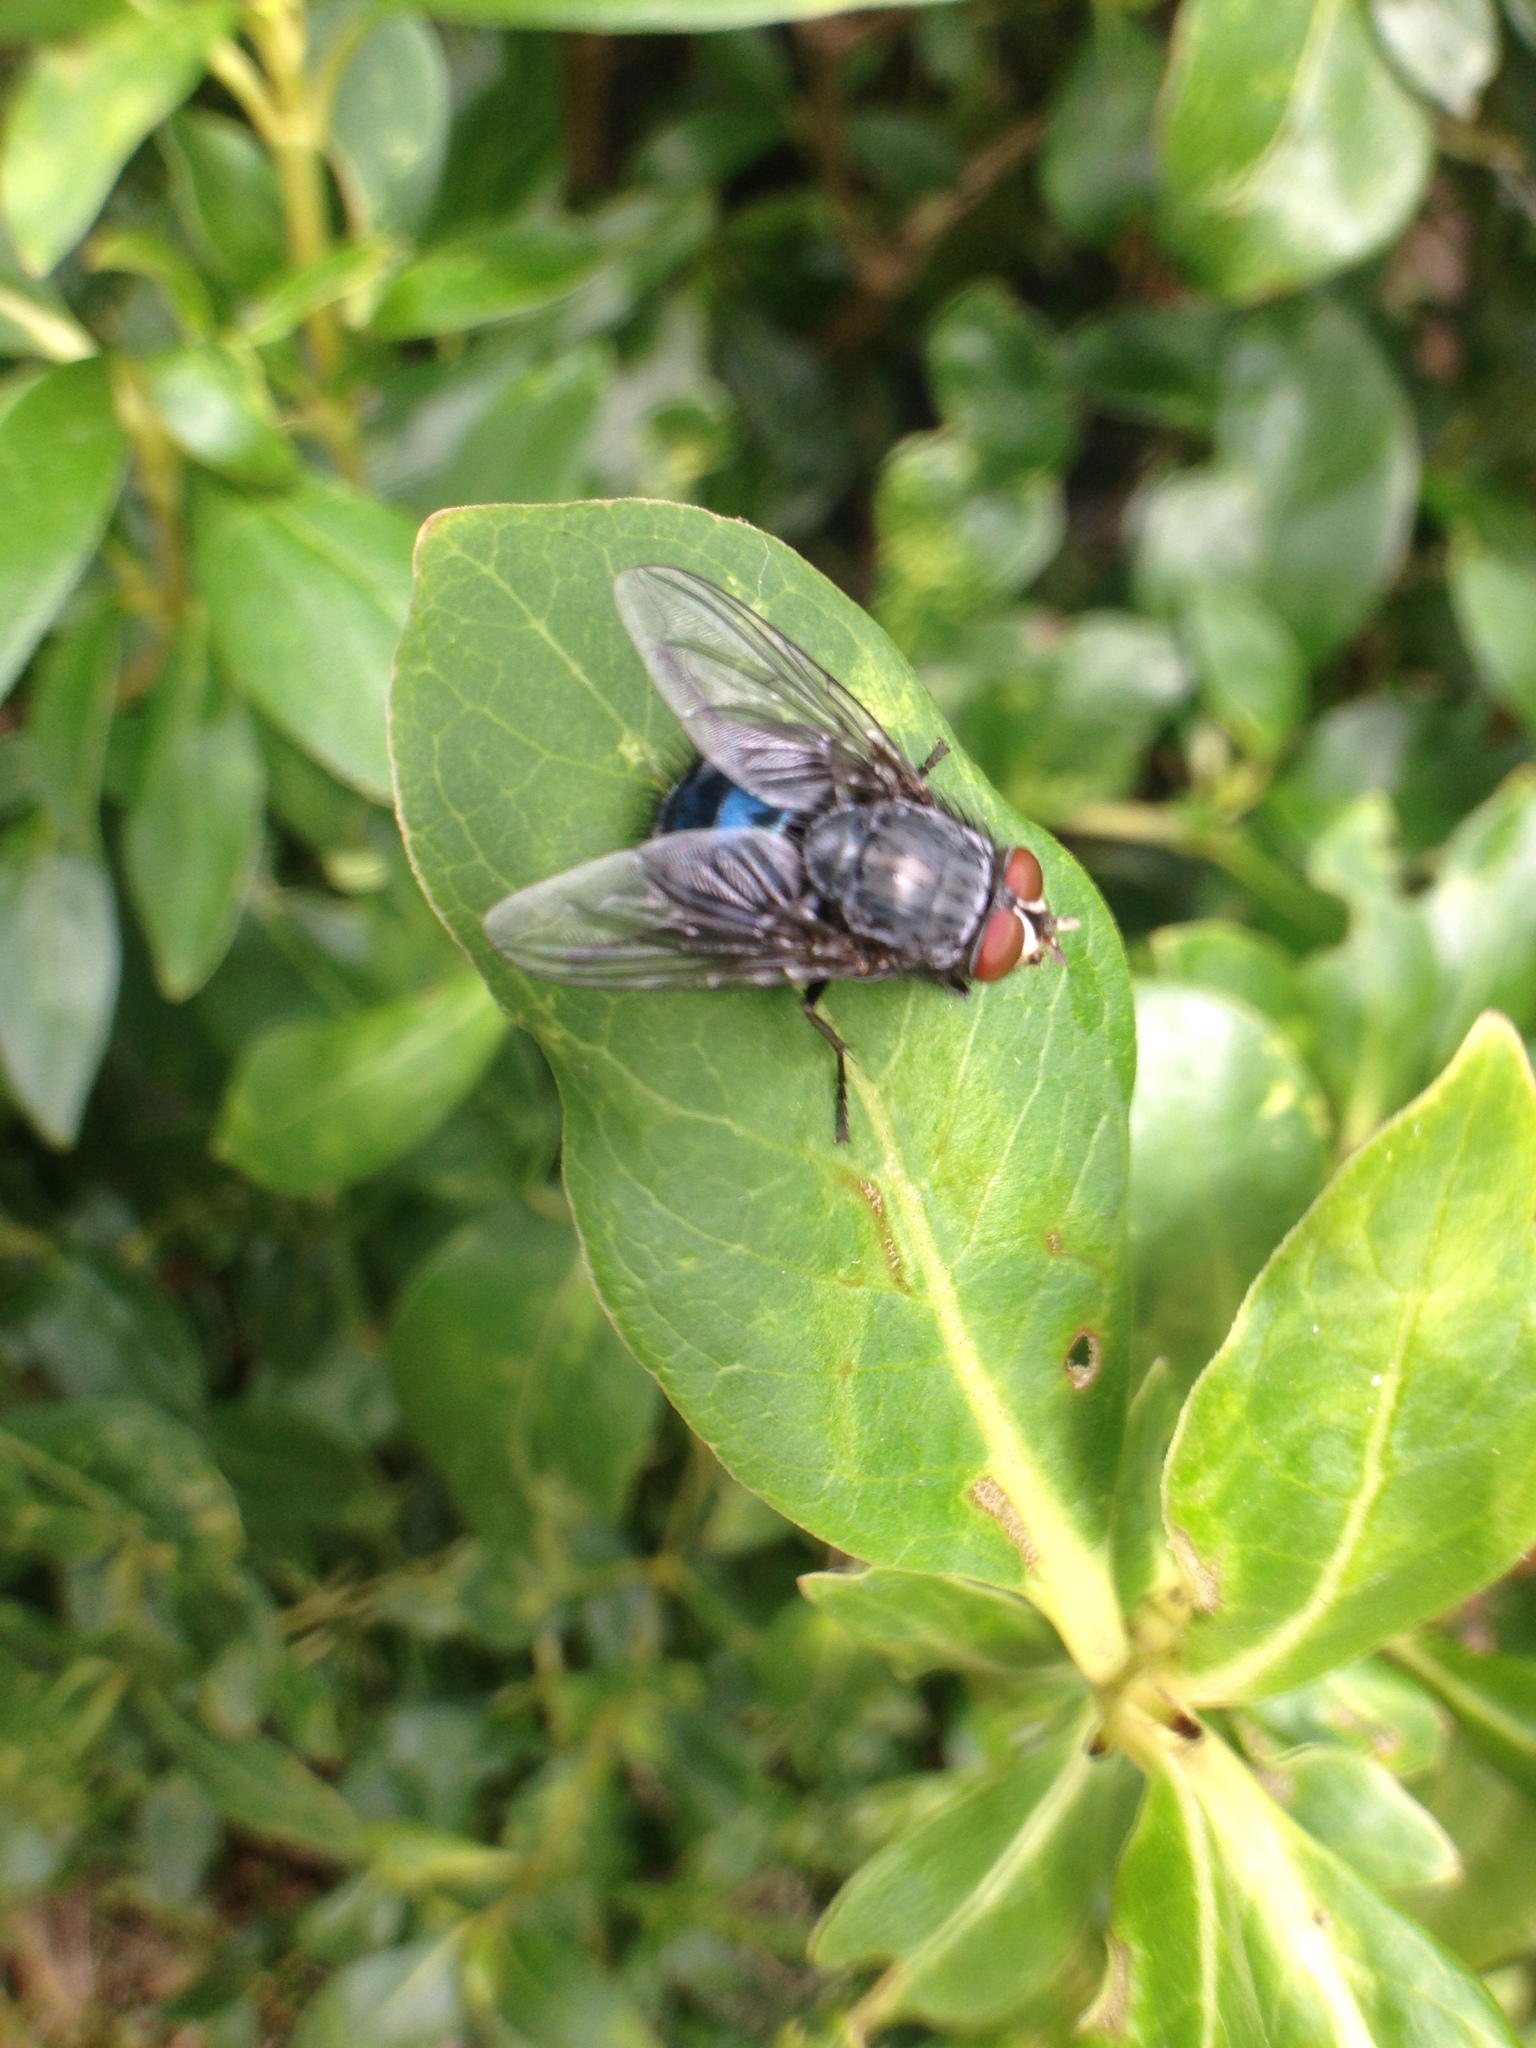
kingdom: Animalia
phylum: Arthropoda
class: Insecta
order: Diptera
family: Calliphoridae
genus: Calliphora
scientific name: Calliphora vicina
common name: Common blow flie
